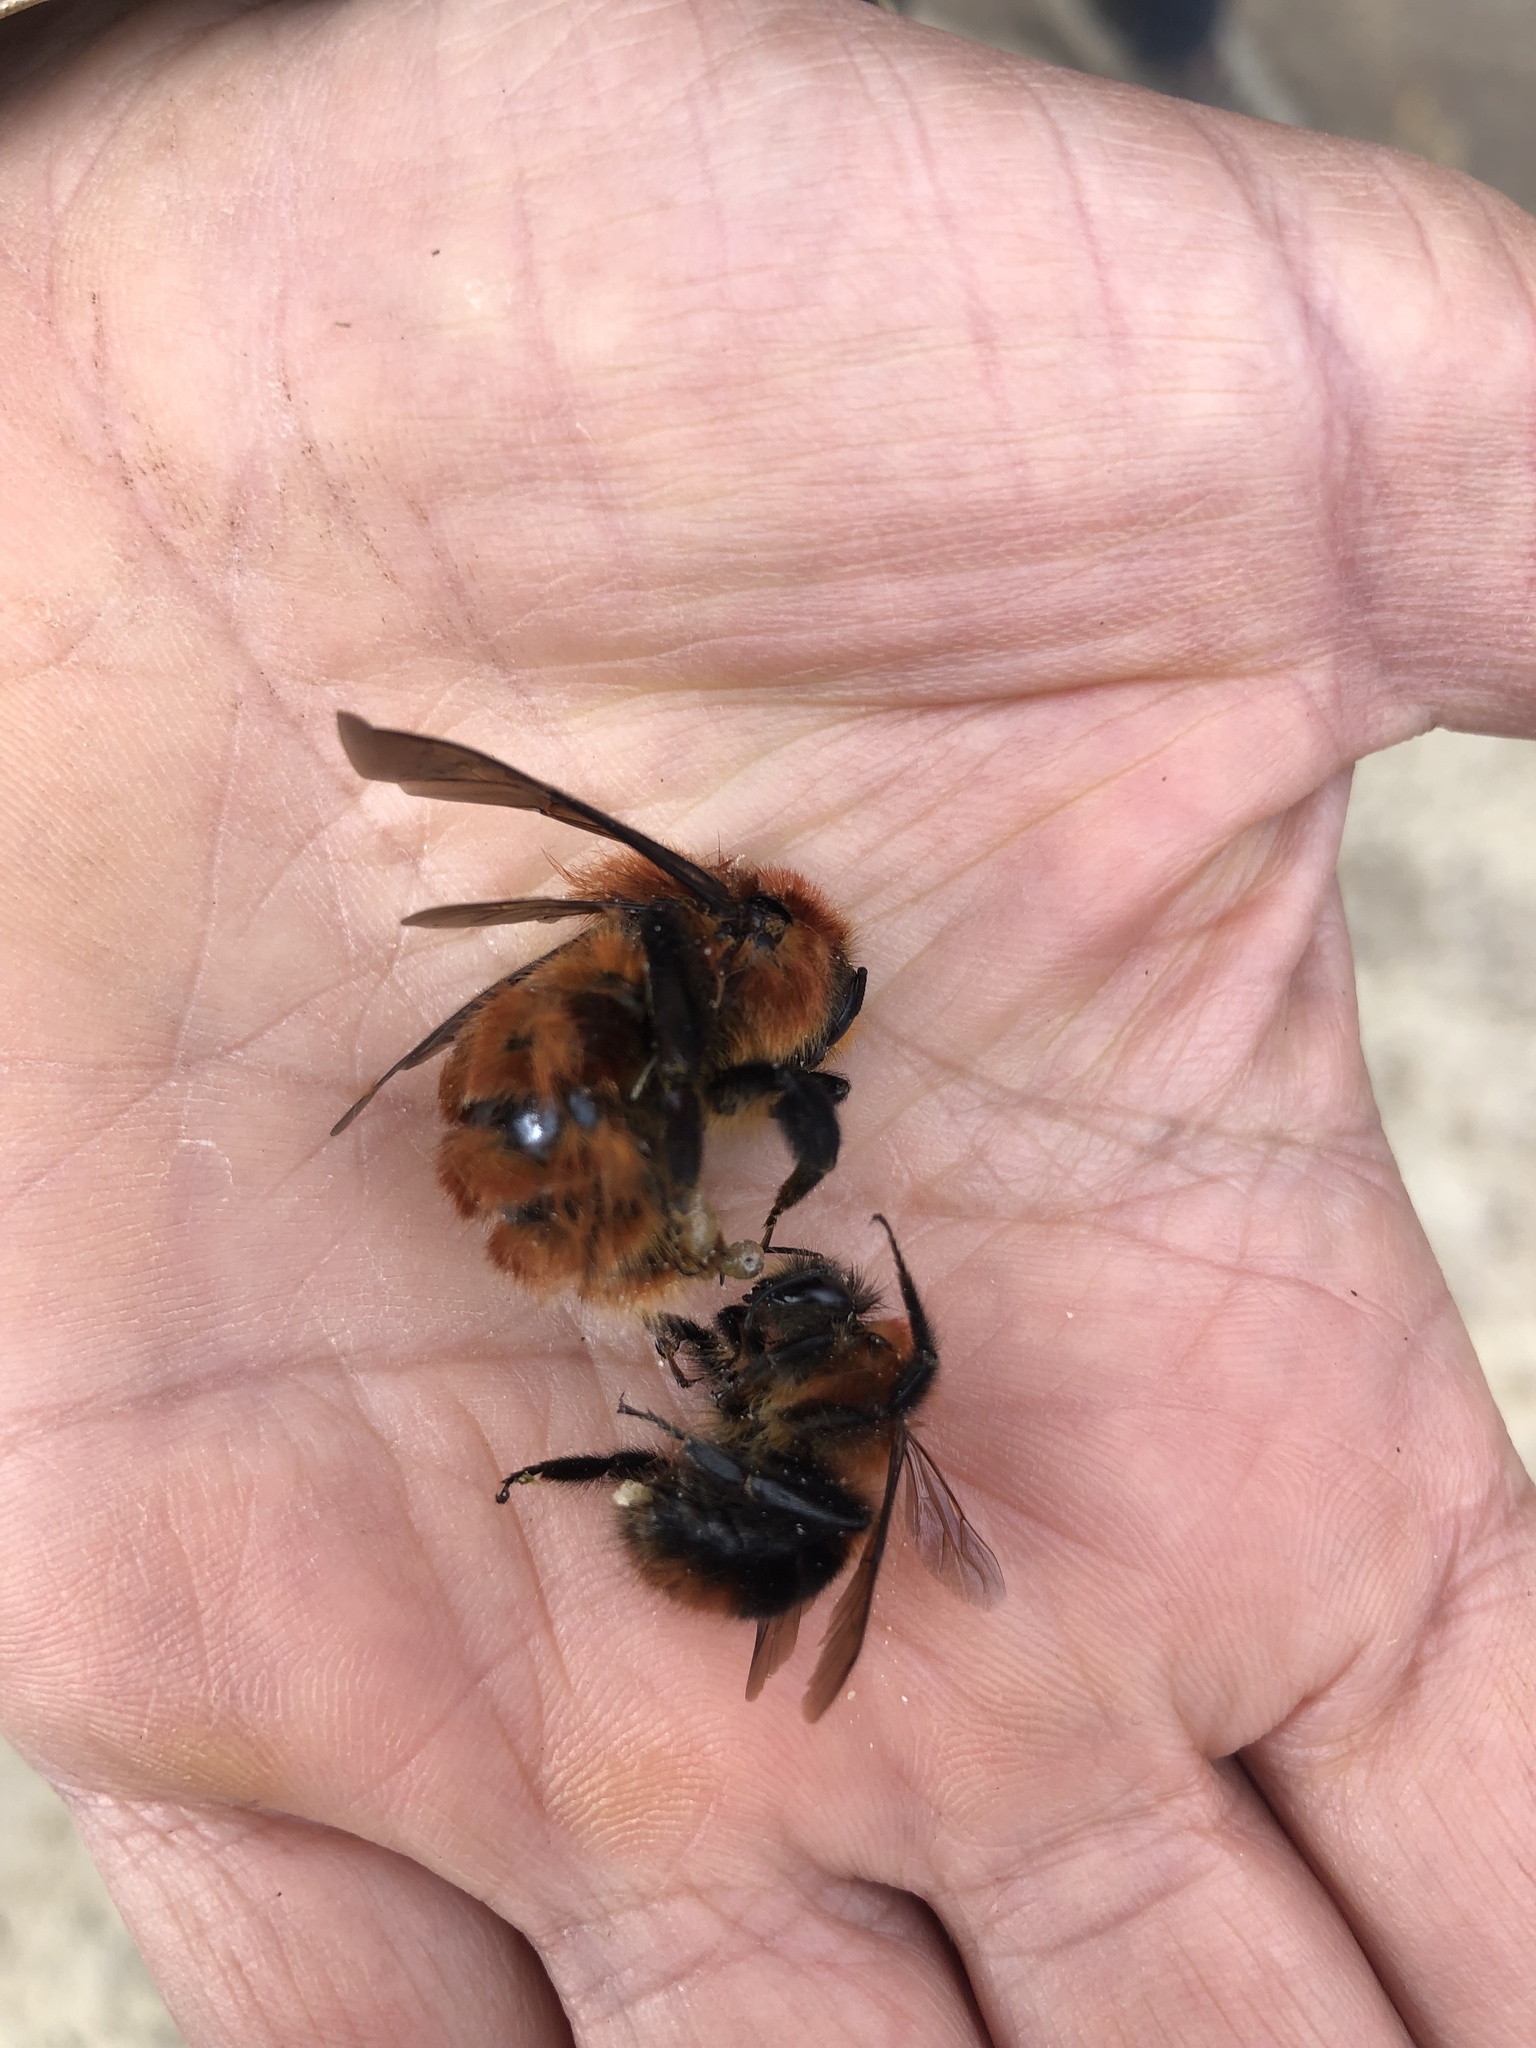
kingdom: Animalia
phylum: Arthropoda
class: Insecta
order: Hymenoptera
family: Apidae
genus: Bombus
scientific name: Bombus rubicundus
